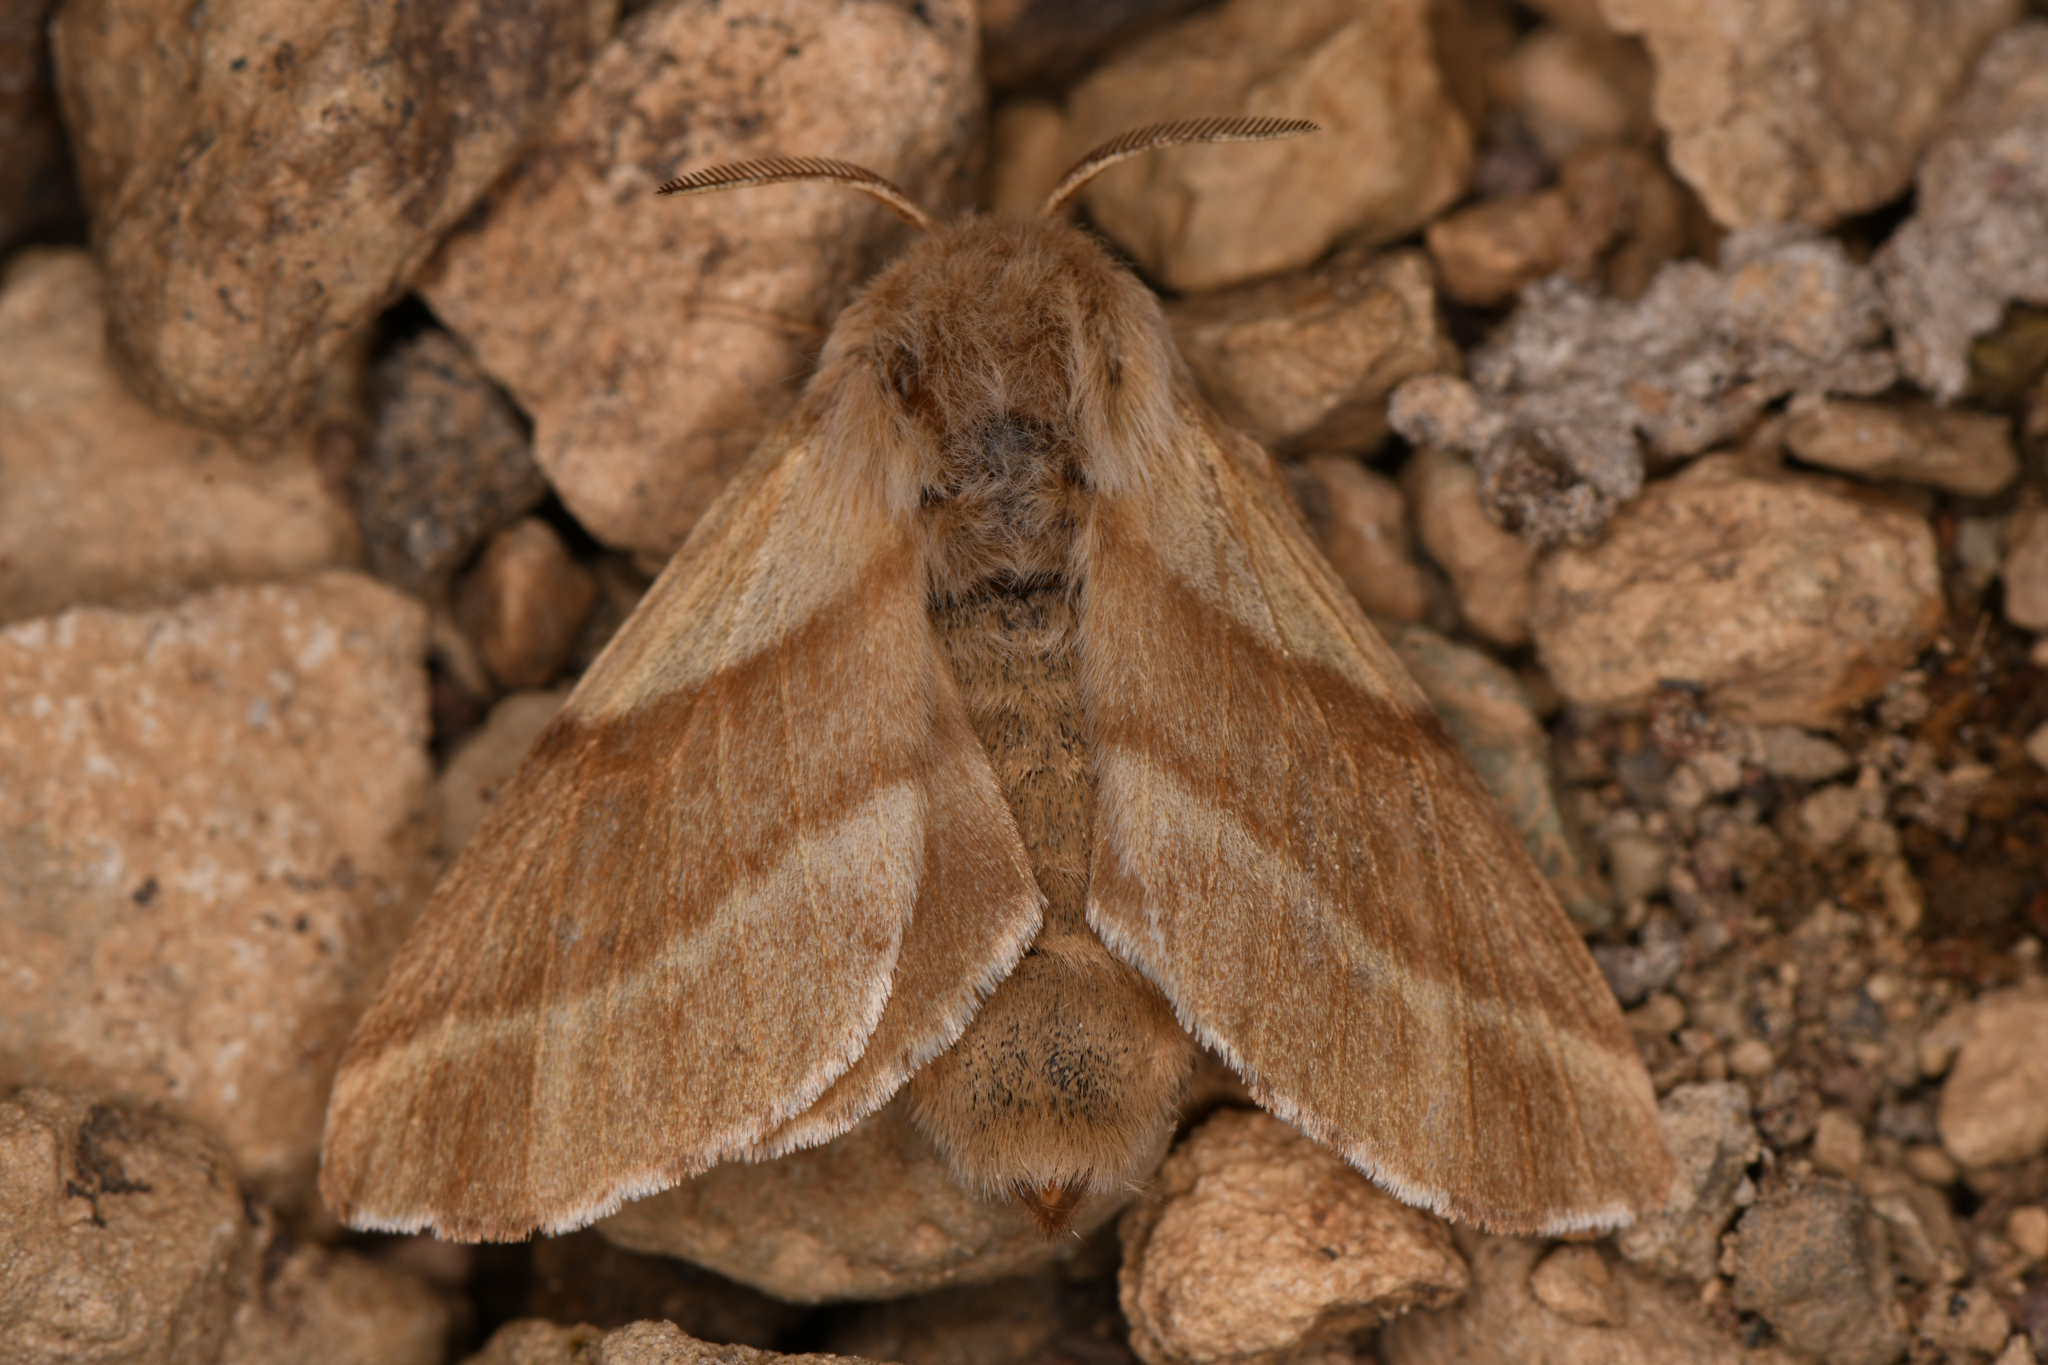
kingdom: Animalia
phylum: Arthropoda
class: Insecta
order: Lepidoptera
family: Lasiocampidae
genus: Malacosoma
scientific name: Malacosoma californica
